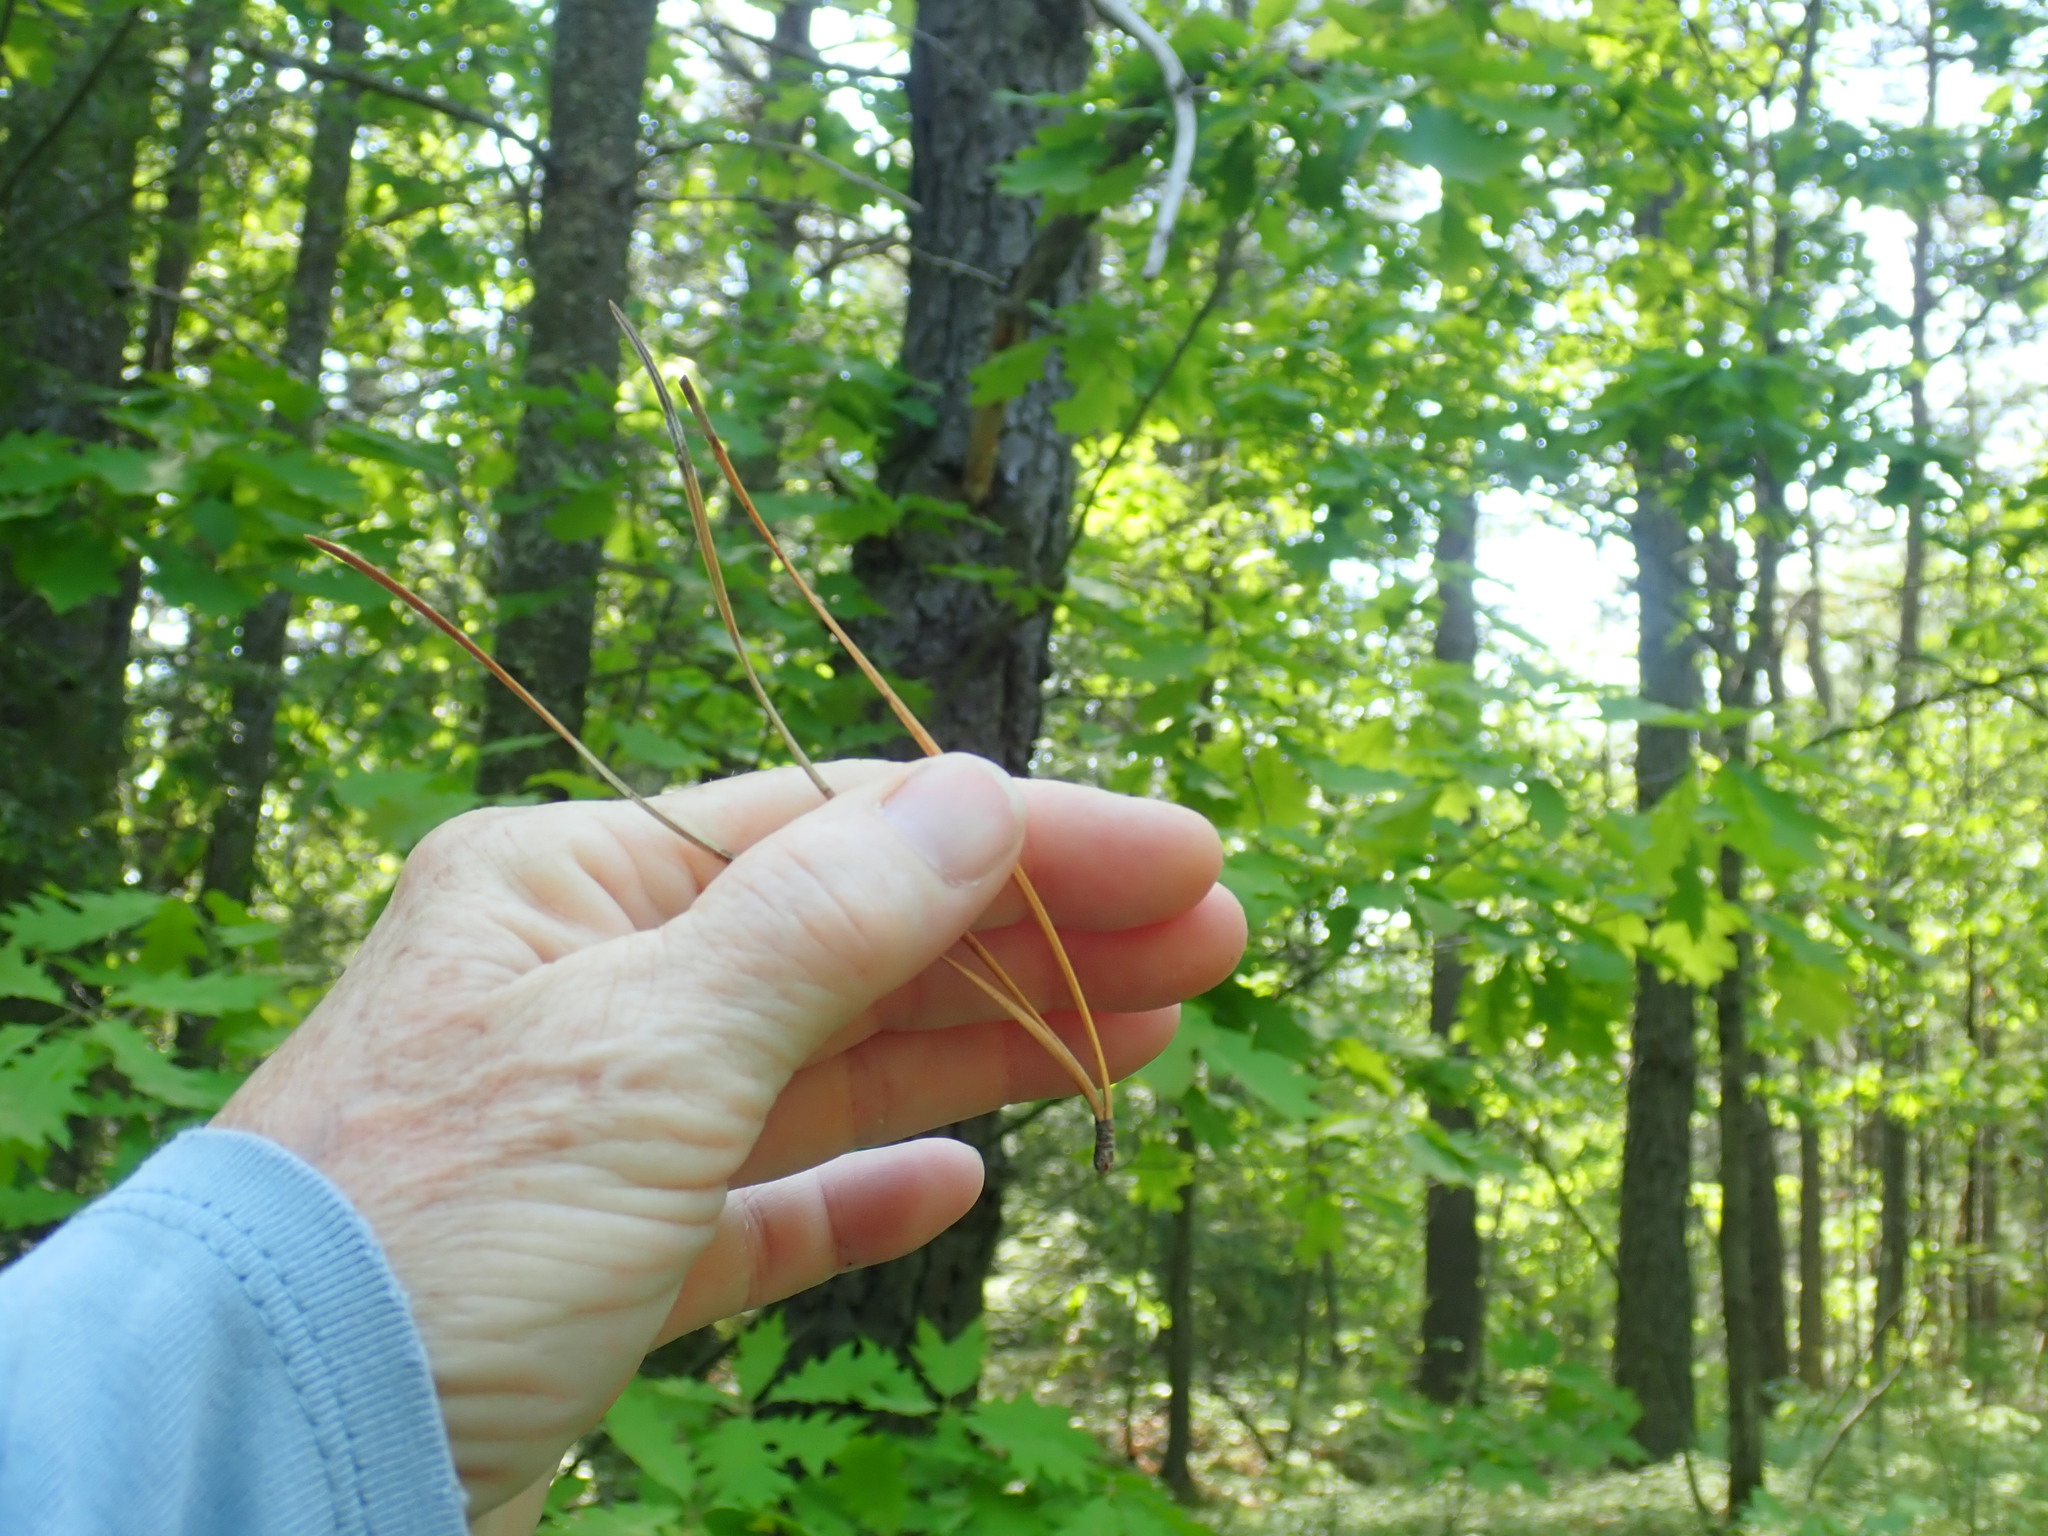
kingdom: Plantae
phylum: Tracheophyta
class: Pinopsida
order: Pinales
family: Pinaceae
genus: Pinus
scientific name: Pinus rigida
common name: Pitch pine
